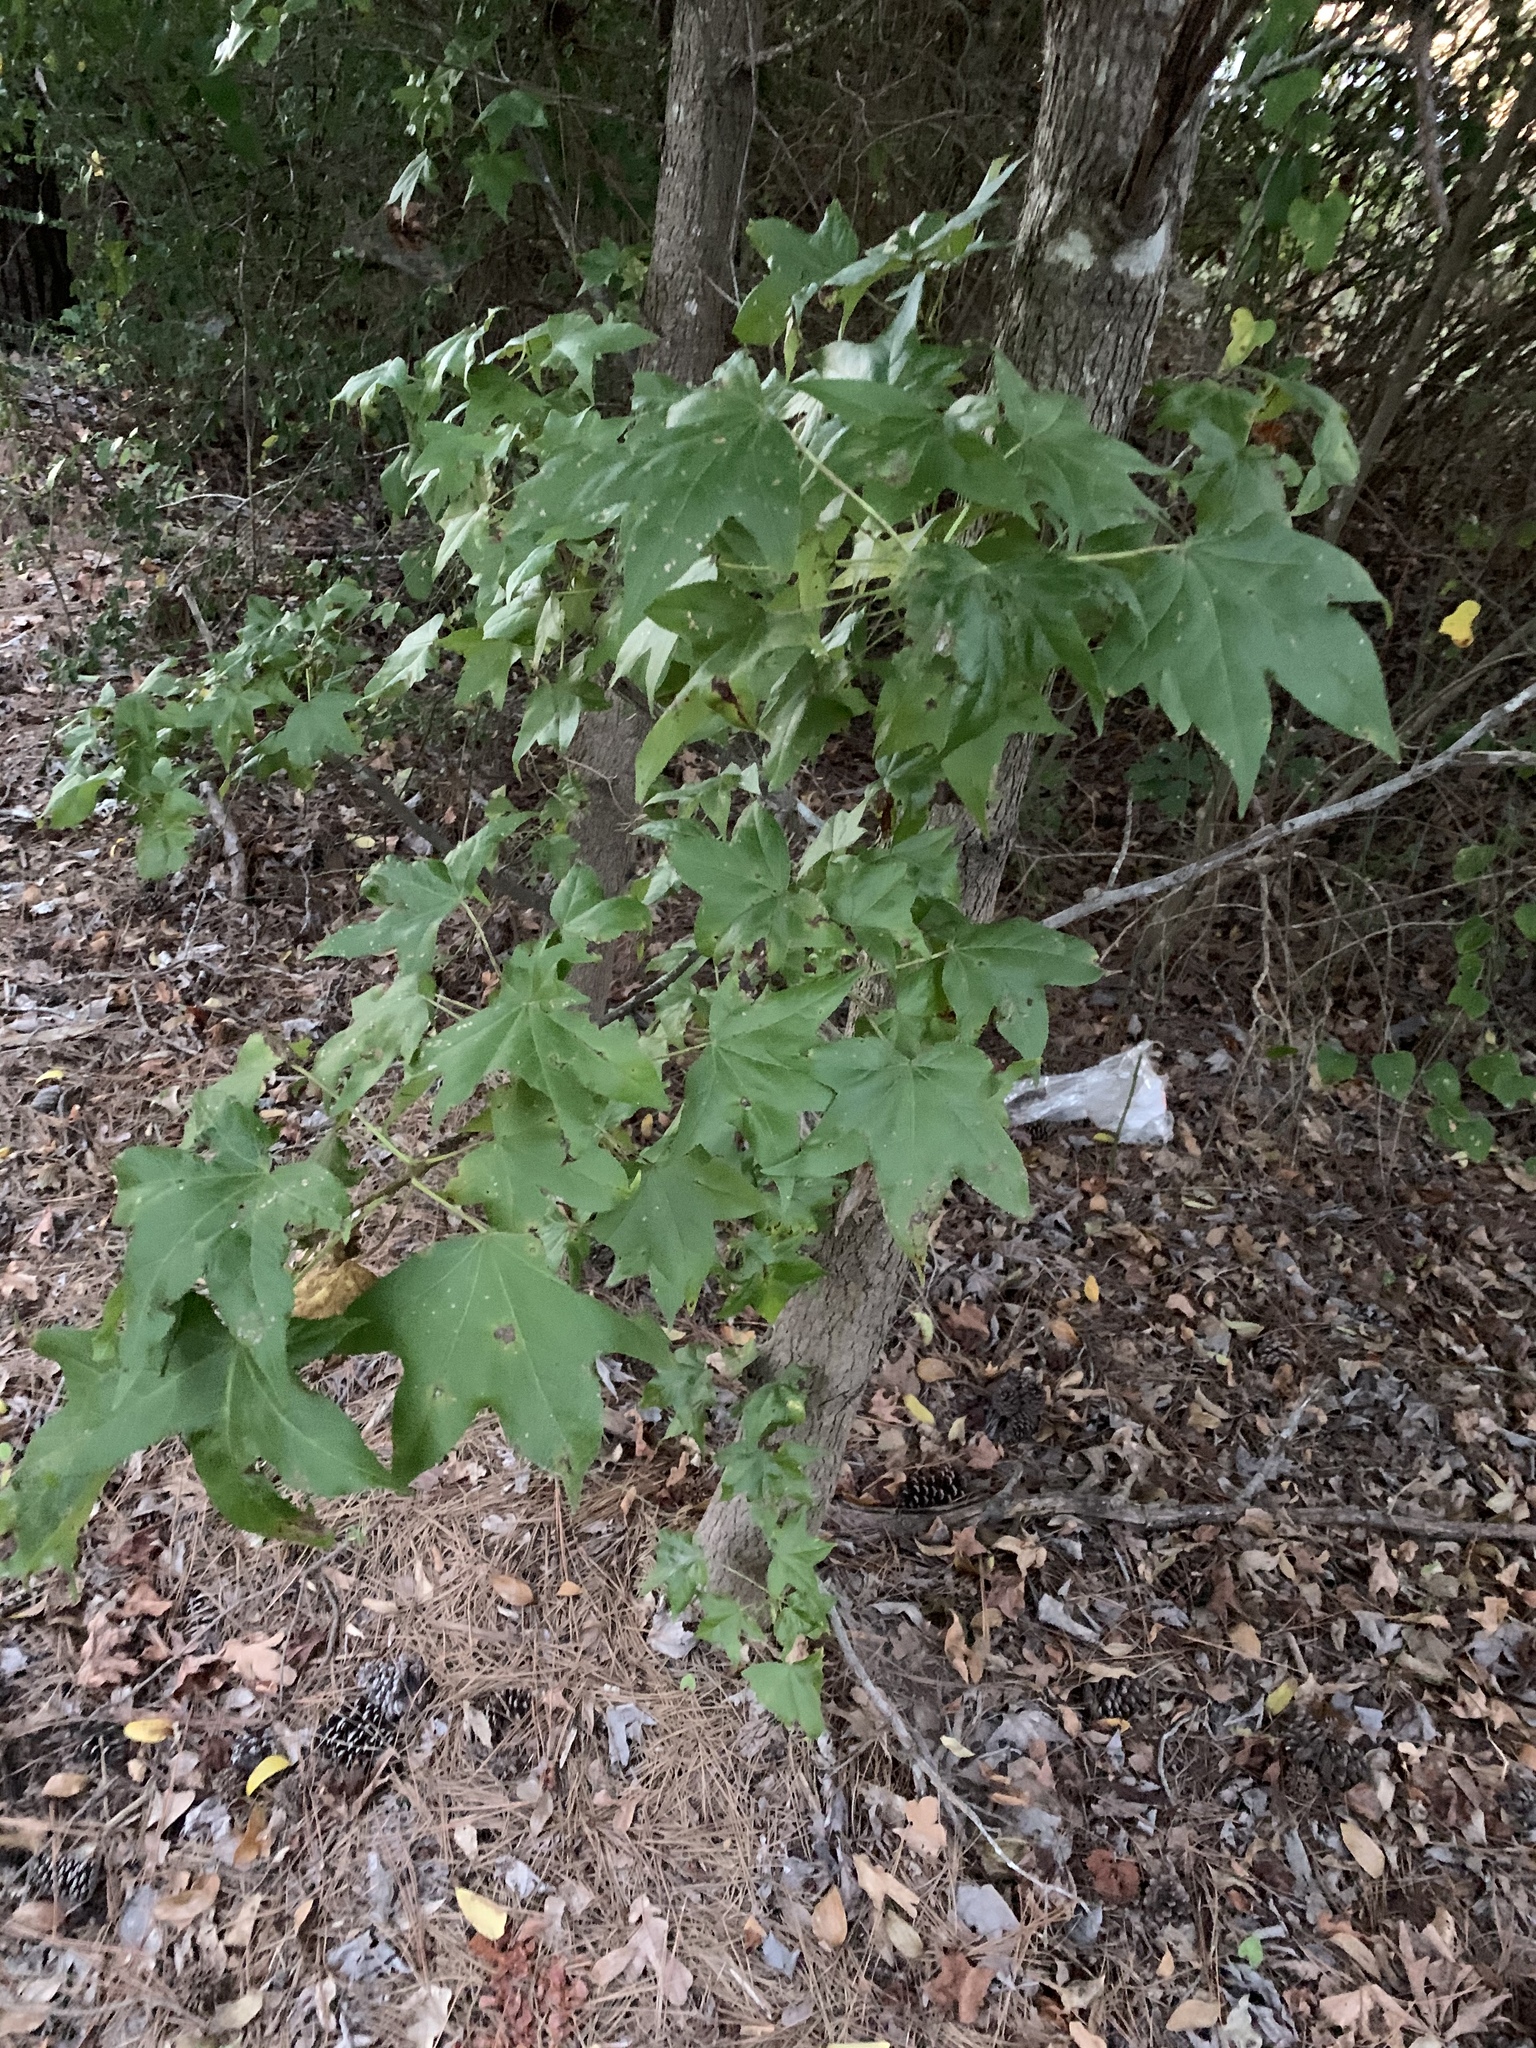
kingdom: Plantae
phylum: Tracheophyta
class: Magnoliopsida
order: Saxifragales
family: Altingiaceae
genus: Liquidambar
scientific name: Liquidambar styraciflua
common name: Sweet gum
